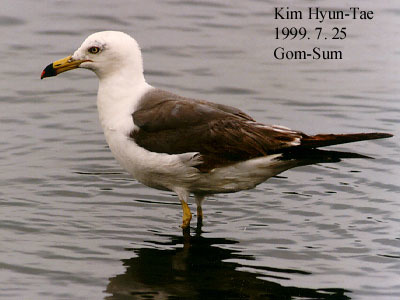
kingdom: Animalia
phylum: Chordata
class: Aves
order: Charadriiformes
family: Laridae
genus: Larus
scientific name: Larus crassirostris
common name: Black-tailed gull
